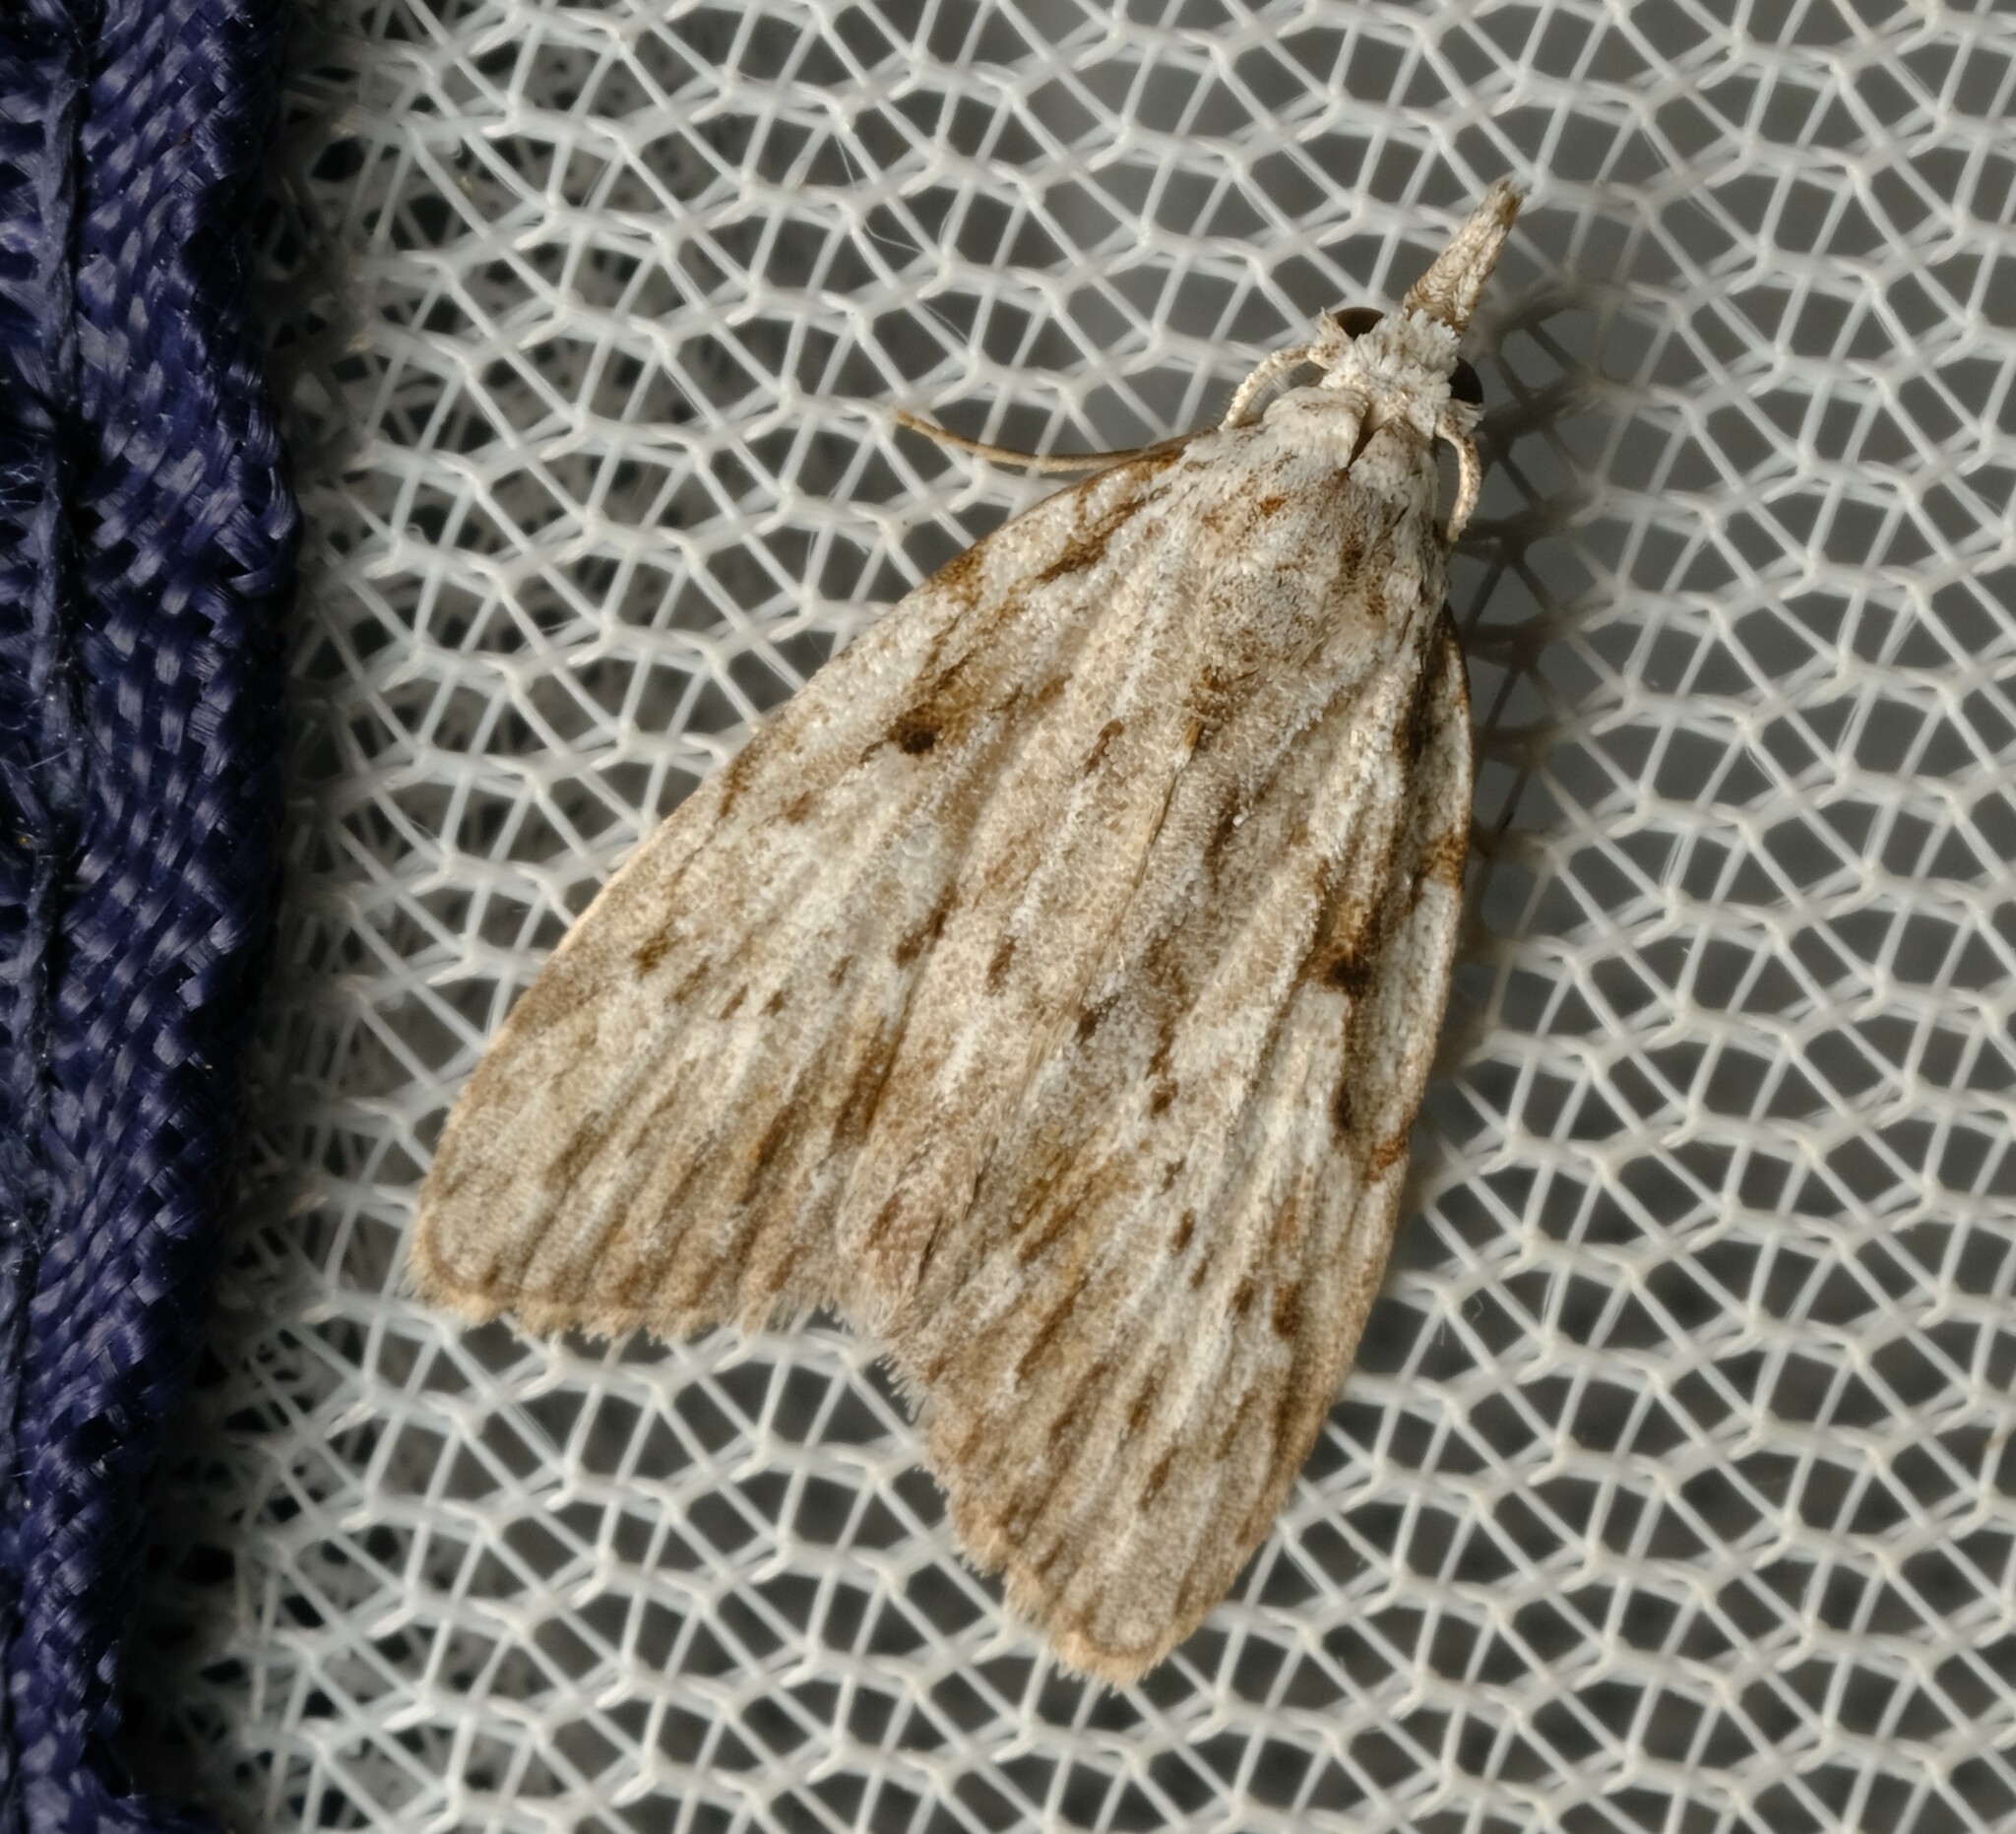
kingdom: Animalia
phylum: Arthropoda
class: Insecta
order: Lepidoptera
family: Nolidae
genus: Nola
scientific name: Nola vernalis
